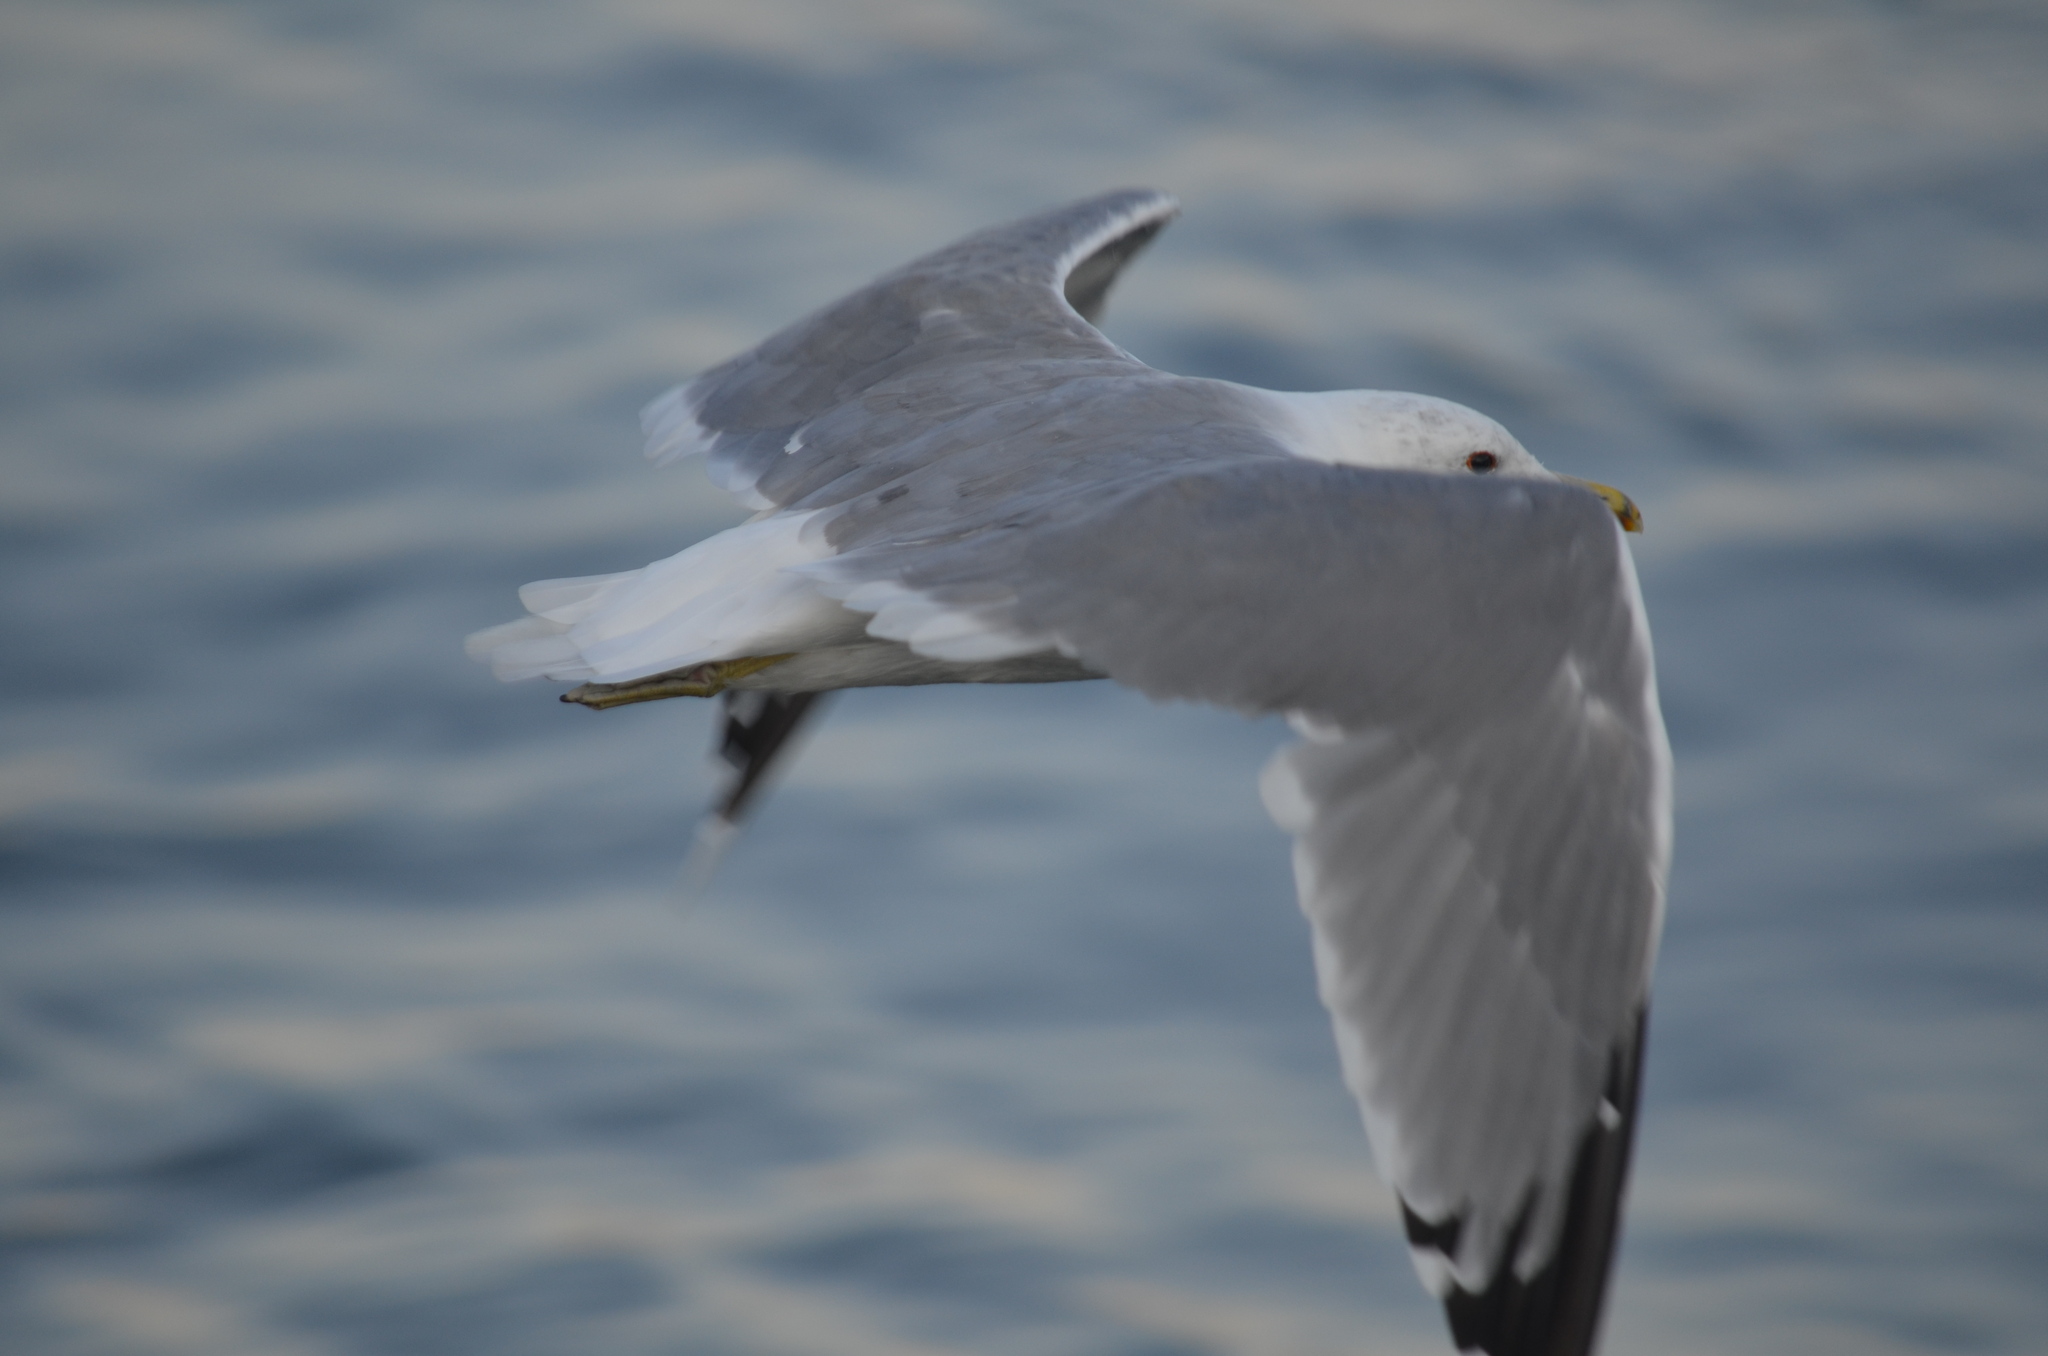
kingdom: Animalia
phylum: Chordata
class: Aves
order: Charadriiformes
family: Laridae
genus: Larus
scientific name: Larus californicus
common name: California gull
